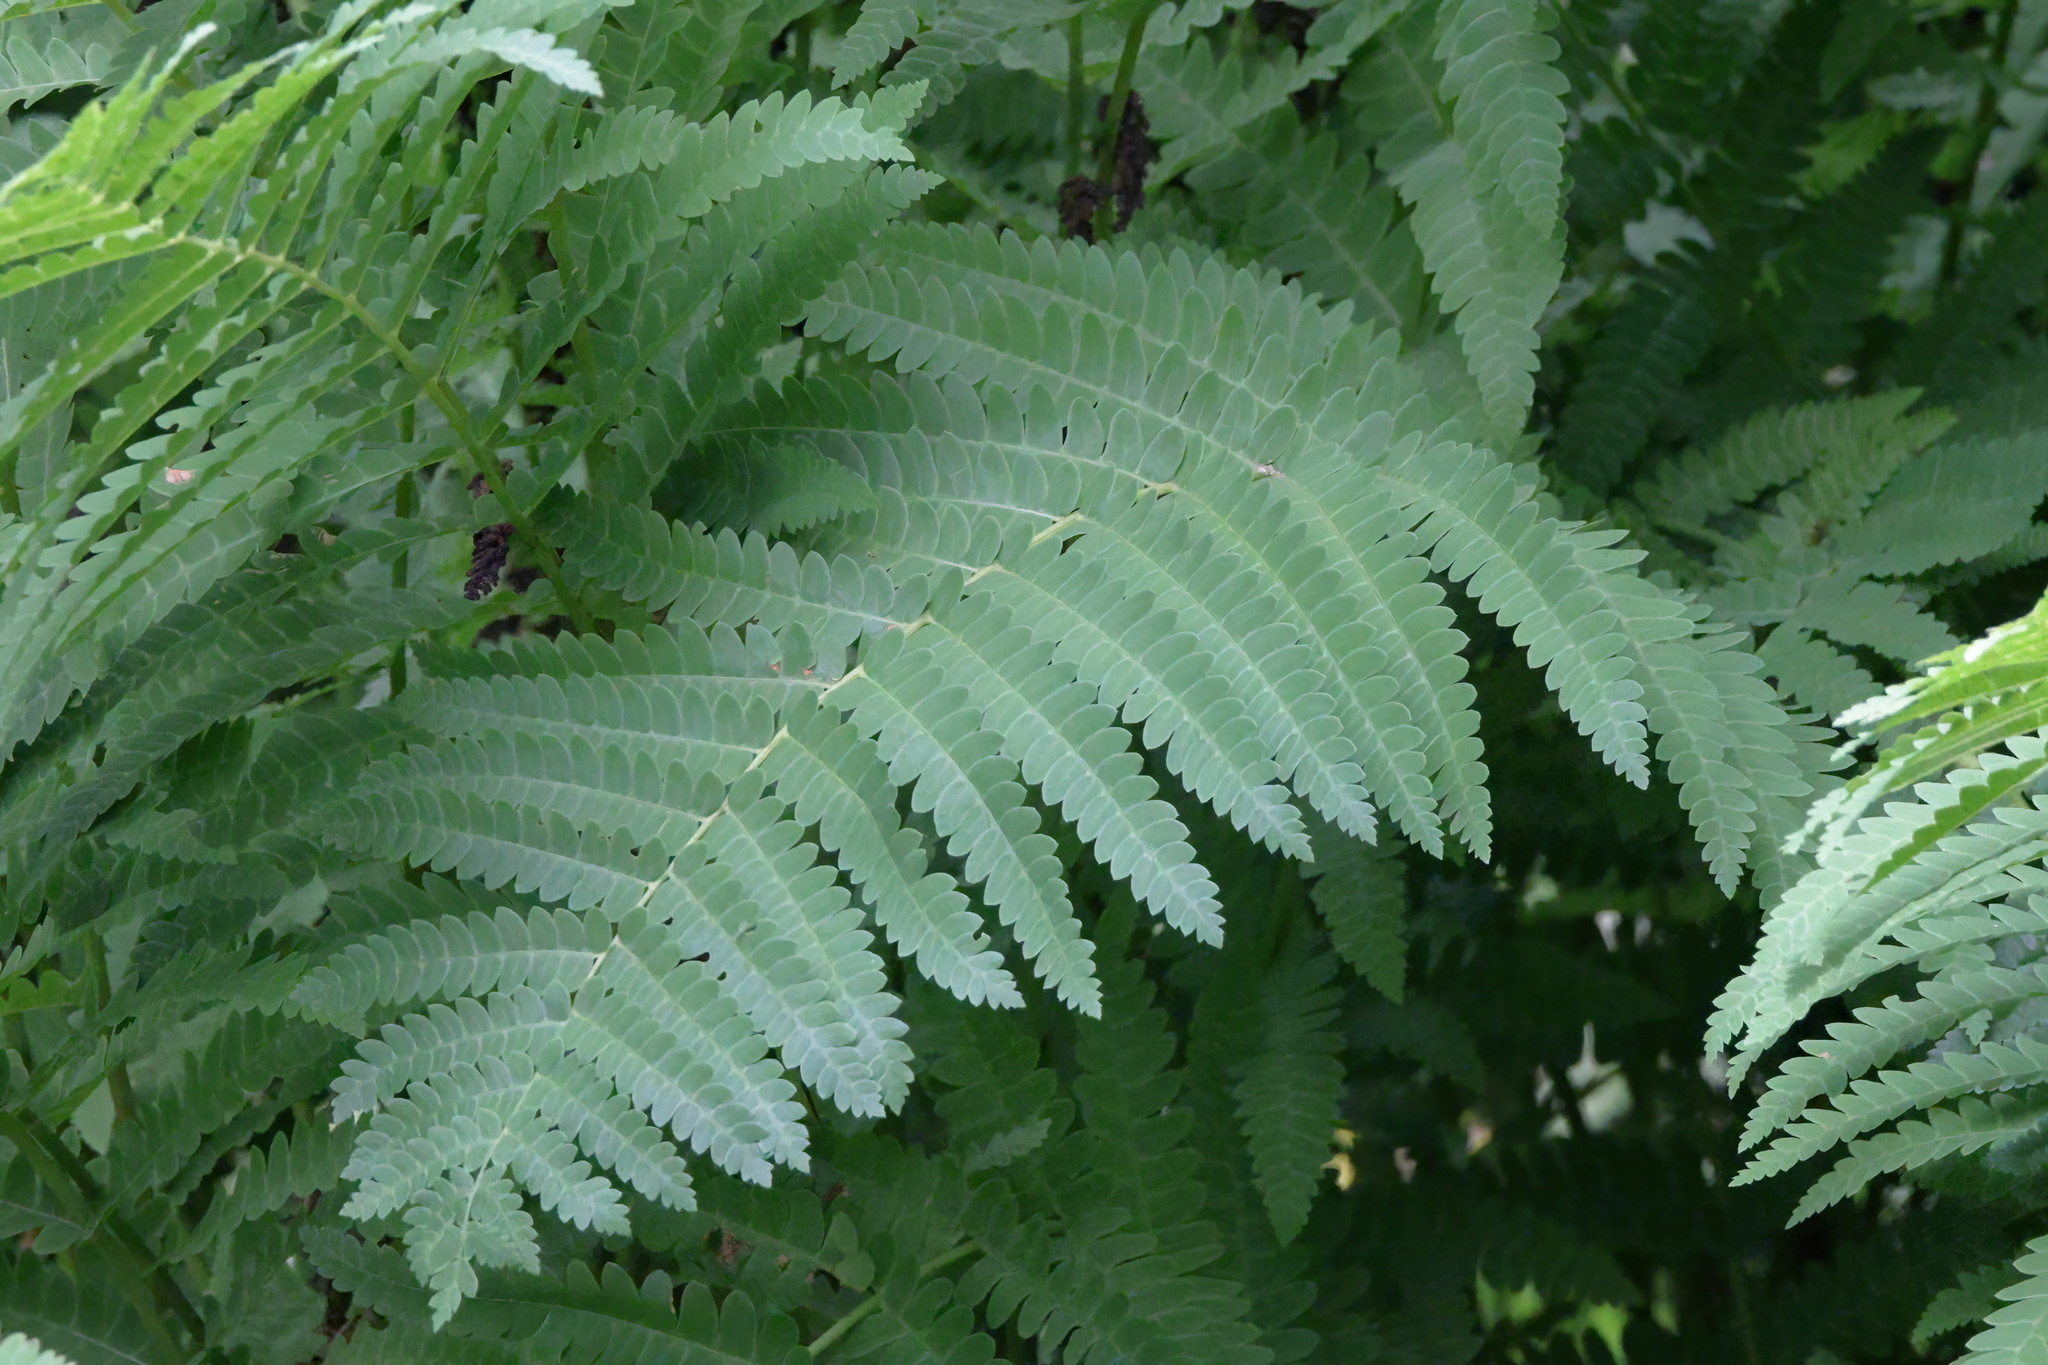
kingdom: Plantae
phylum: Tracheophyta
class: Polypodiopsida
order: Osmundales
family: Osmundaceae
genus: Claytosmunda
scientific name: Claytosmunda claytoniana
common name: Clayton's fern
